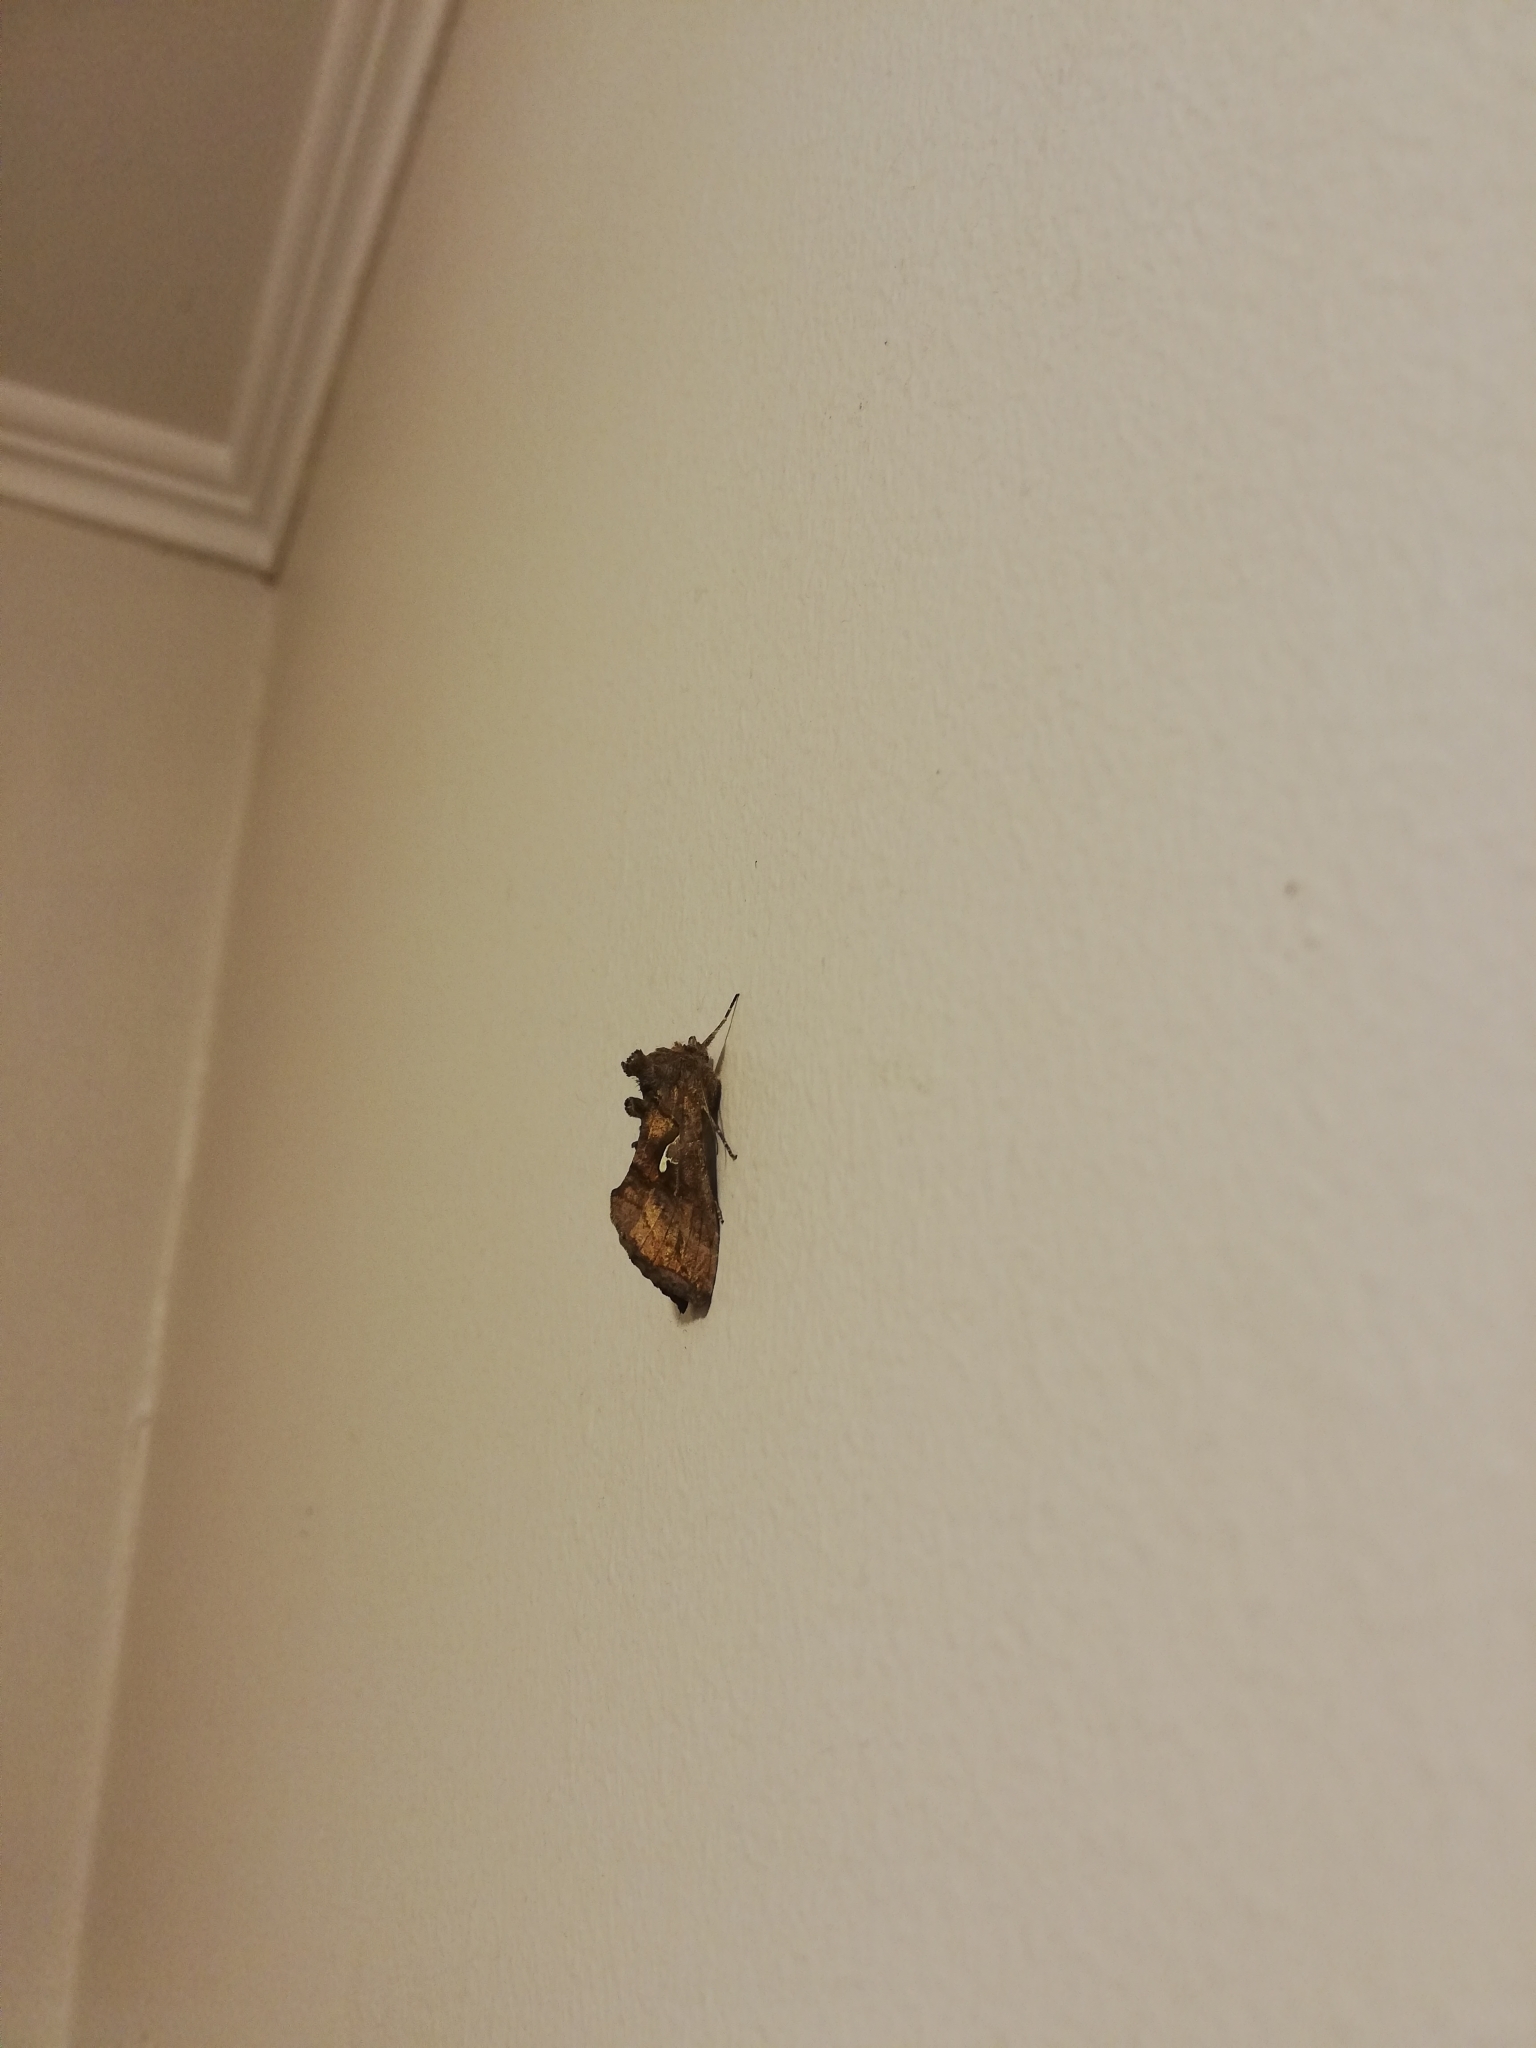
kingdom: Animalia
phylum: Arthropoda
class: Insecta
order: Lepidoptera
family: Noctuidae
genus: Autoplusia
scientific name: Autoplusia gammoides
